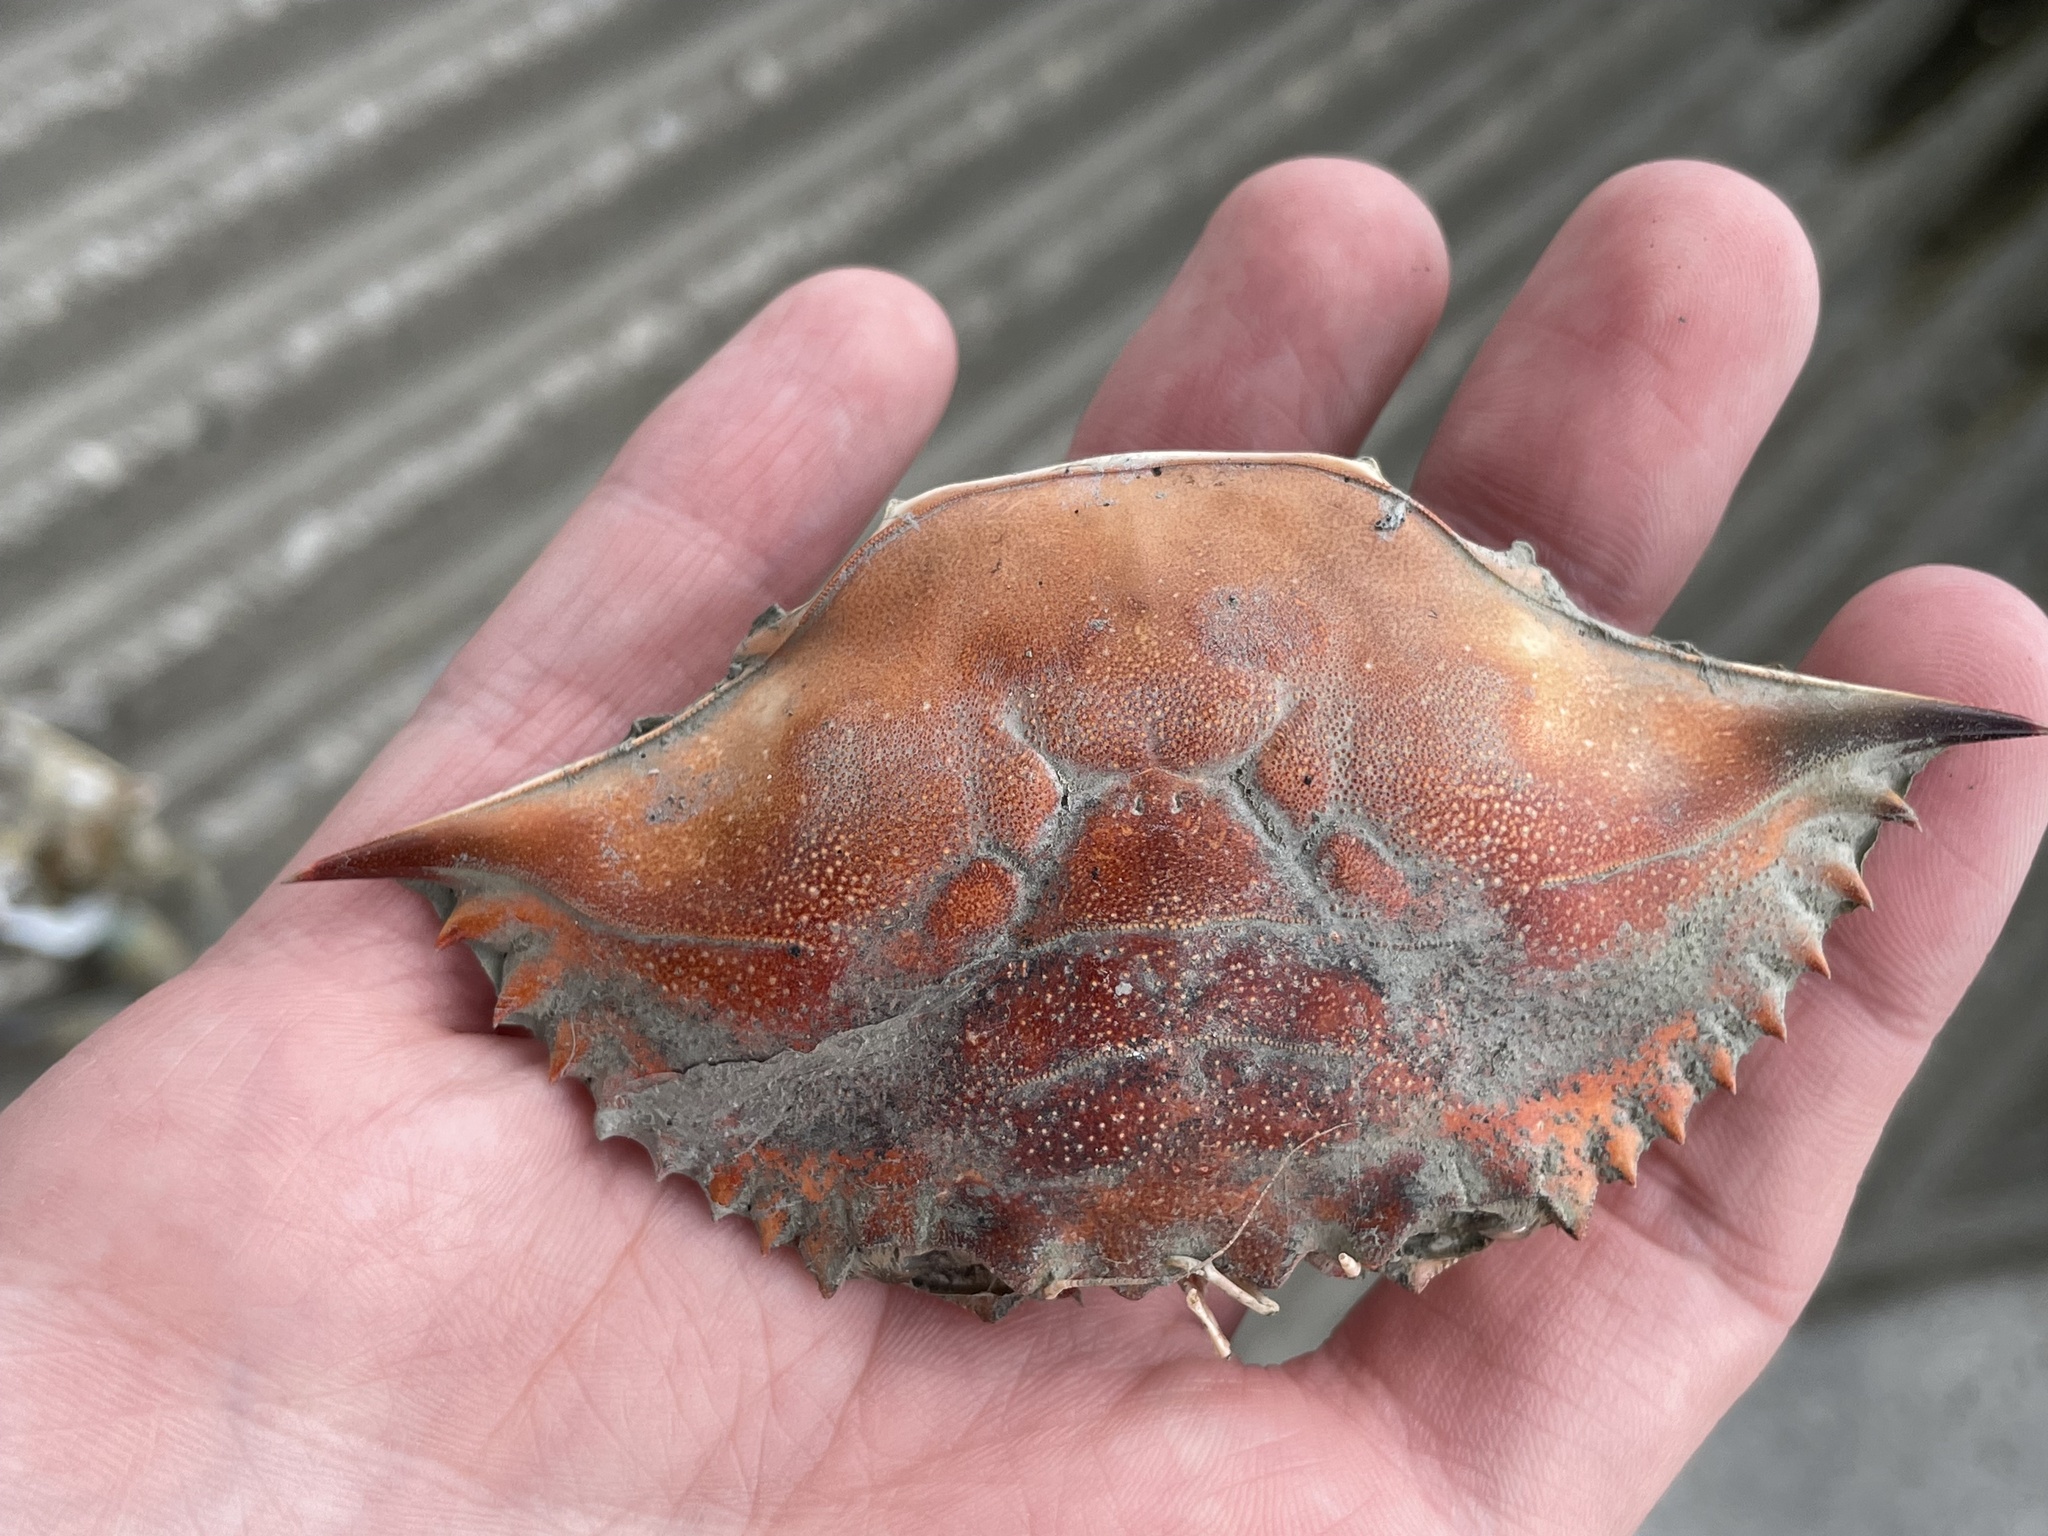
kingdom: Animalia
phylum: Arthropoda
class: Malacostraca
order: Decapoda
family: Portunidae
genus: Callinectes
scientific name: Callinectes sapidus
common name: Blue crab
